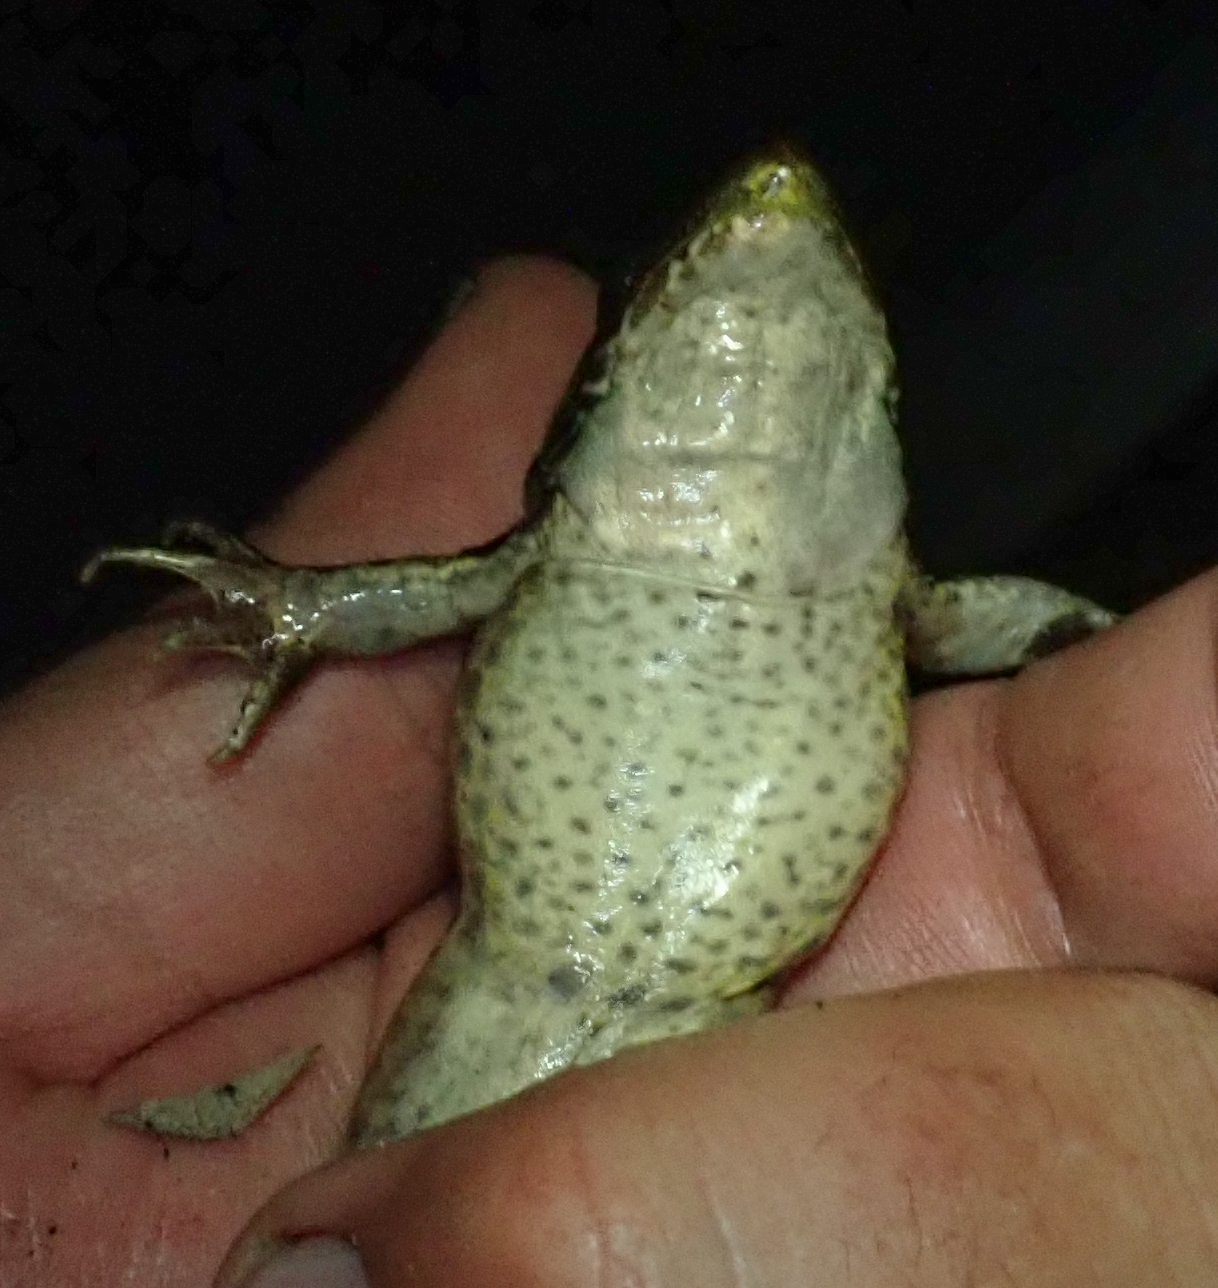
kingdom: Animalia
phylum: Chordata
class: Amphibia
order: Anura
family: Ptychadenidae
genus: Ptychadena
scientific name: Ptychadena subpunctata
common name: Bocage's grassland frog
